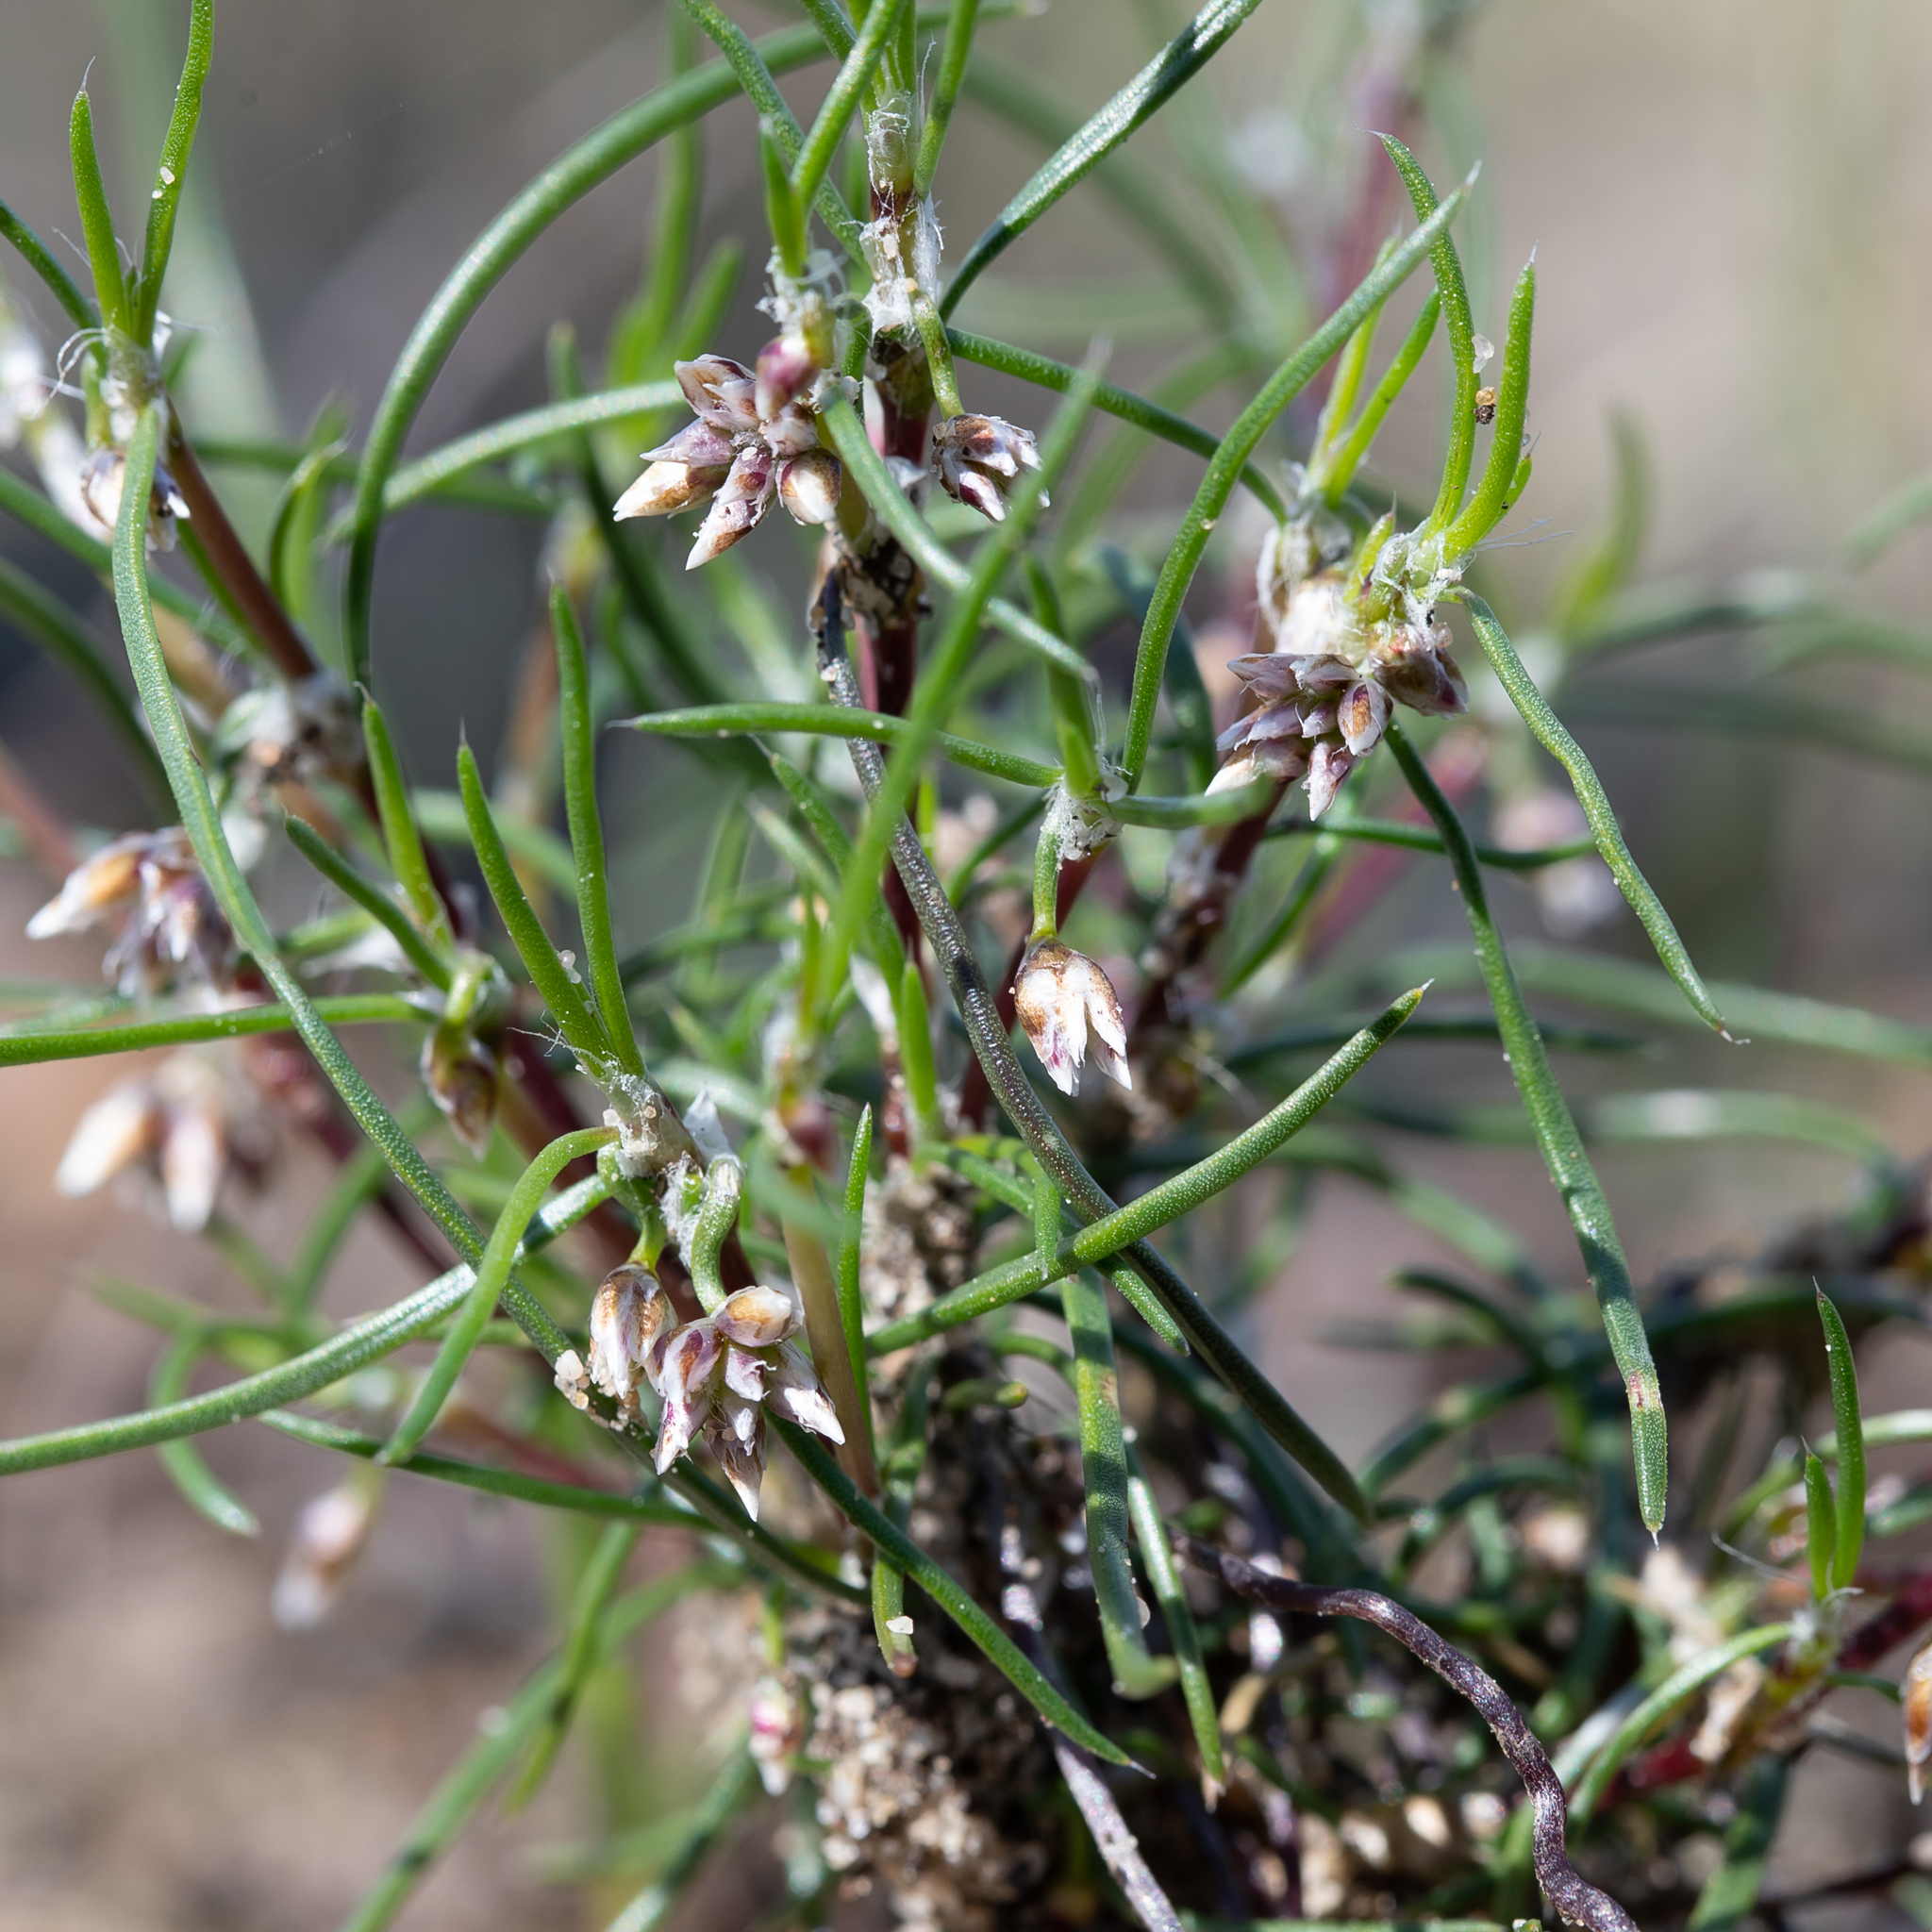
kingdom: Plantae
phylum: Tracheophyta
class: Liliopsida
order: Asparagales
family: Asparagaceae
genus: Laxmannia
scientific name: Laxmannia orientalis
